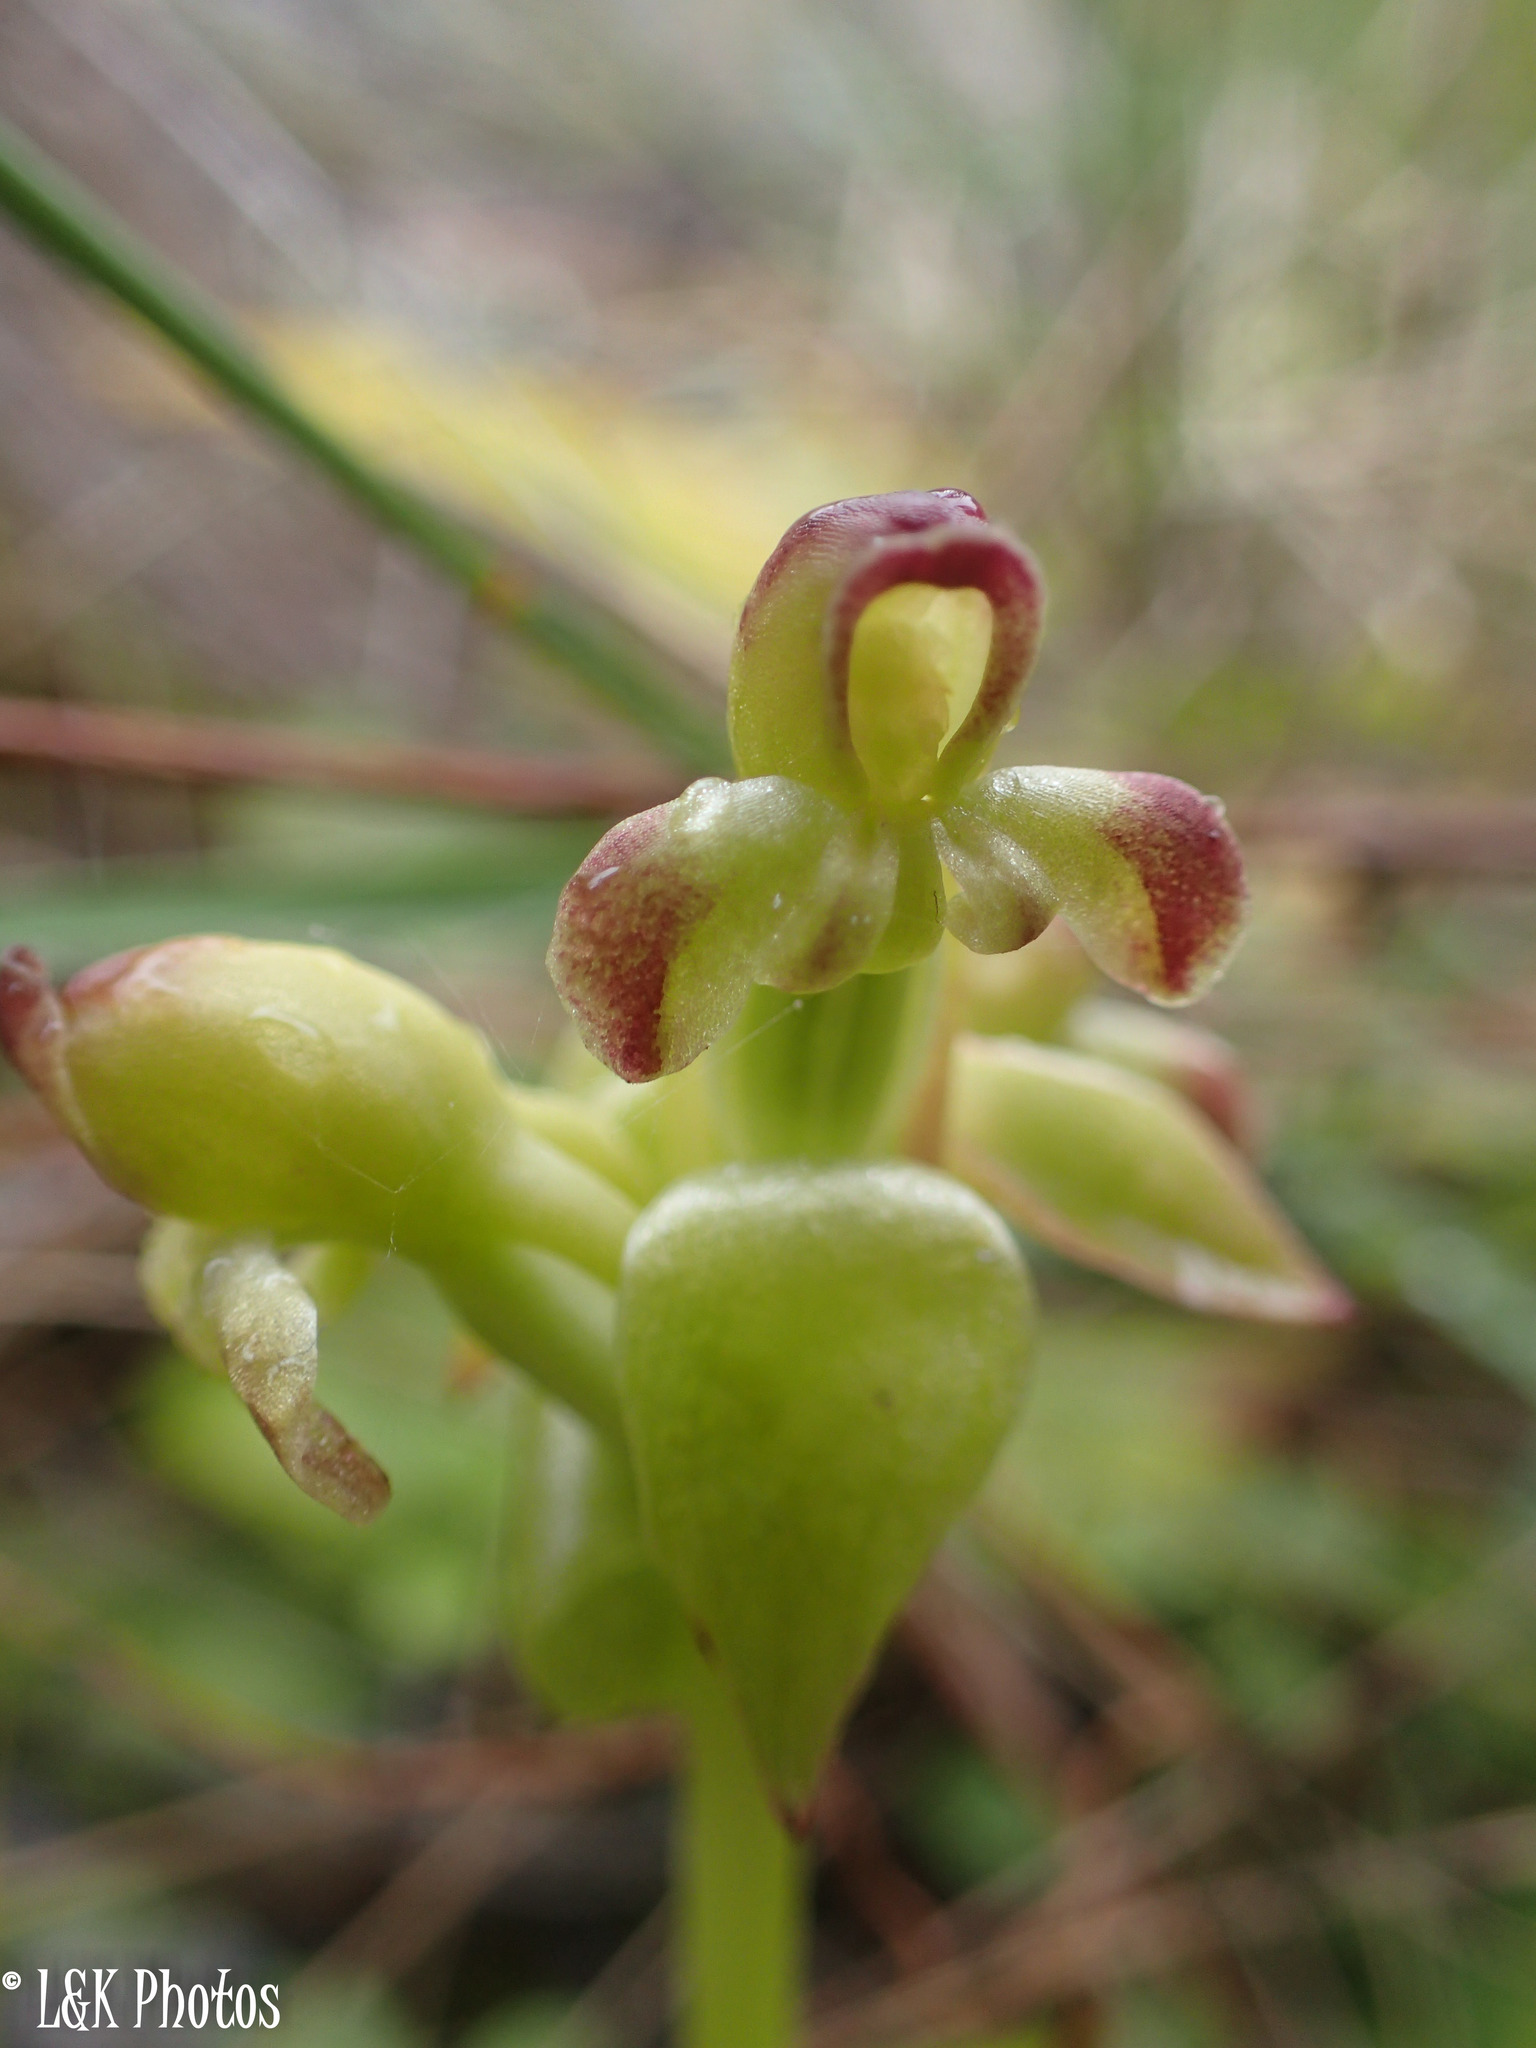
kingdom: Plantae
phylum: Tracheophyta
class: Liliopsida
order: Asparagales
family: Orchidaceae
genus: Satyrium
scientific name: Satyrium odorum
